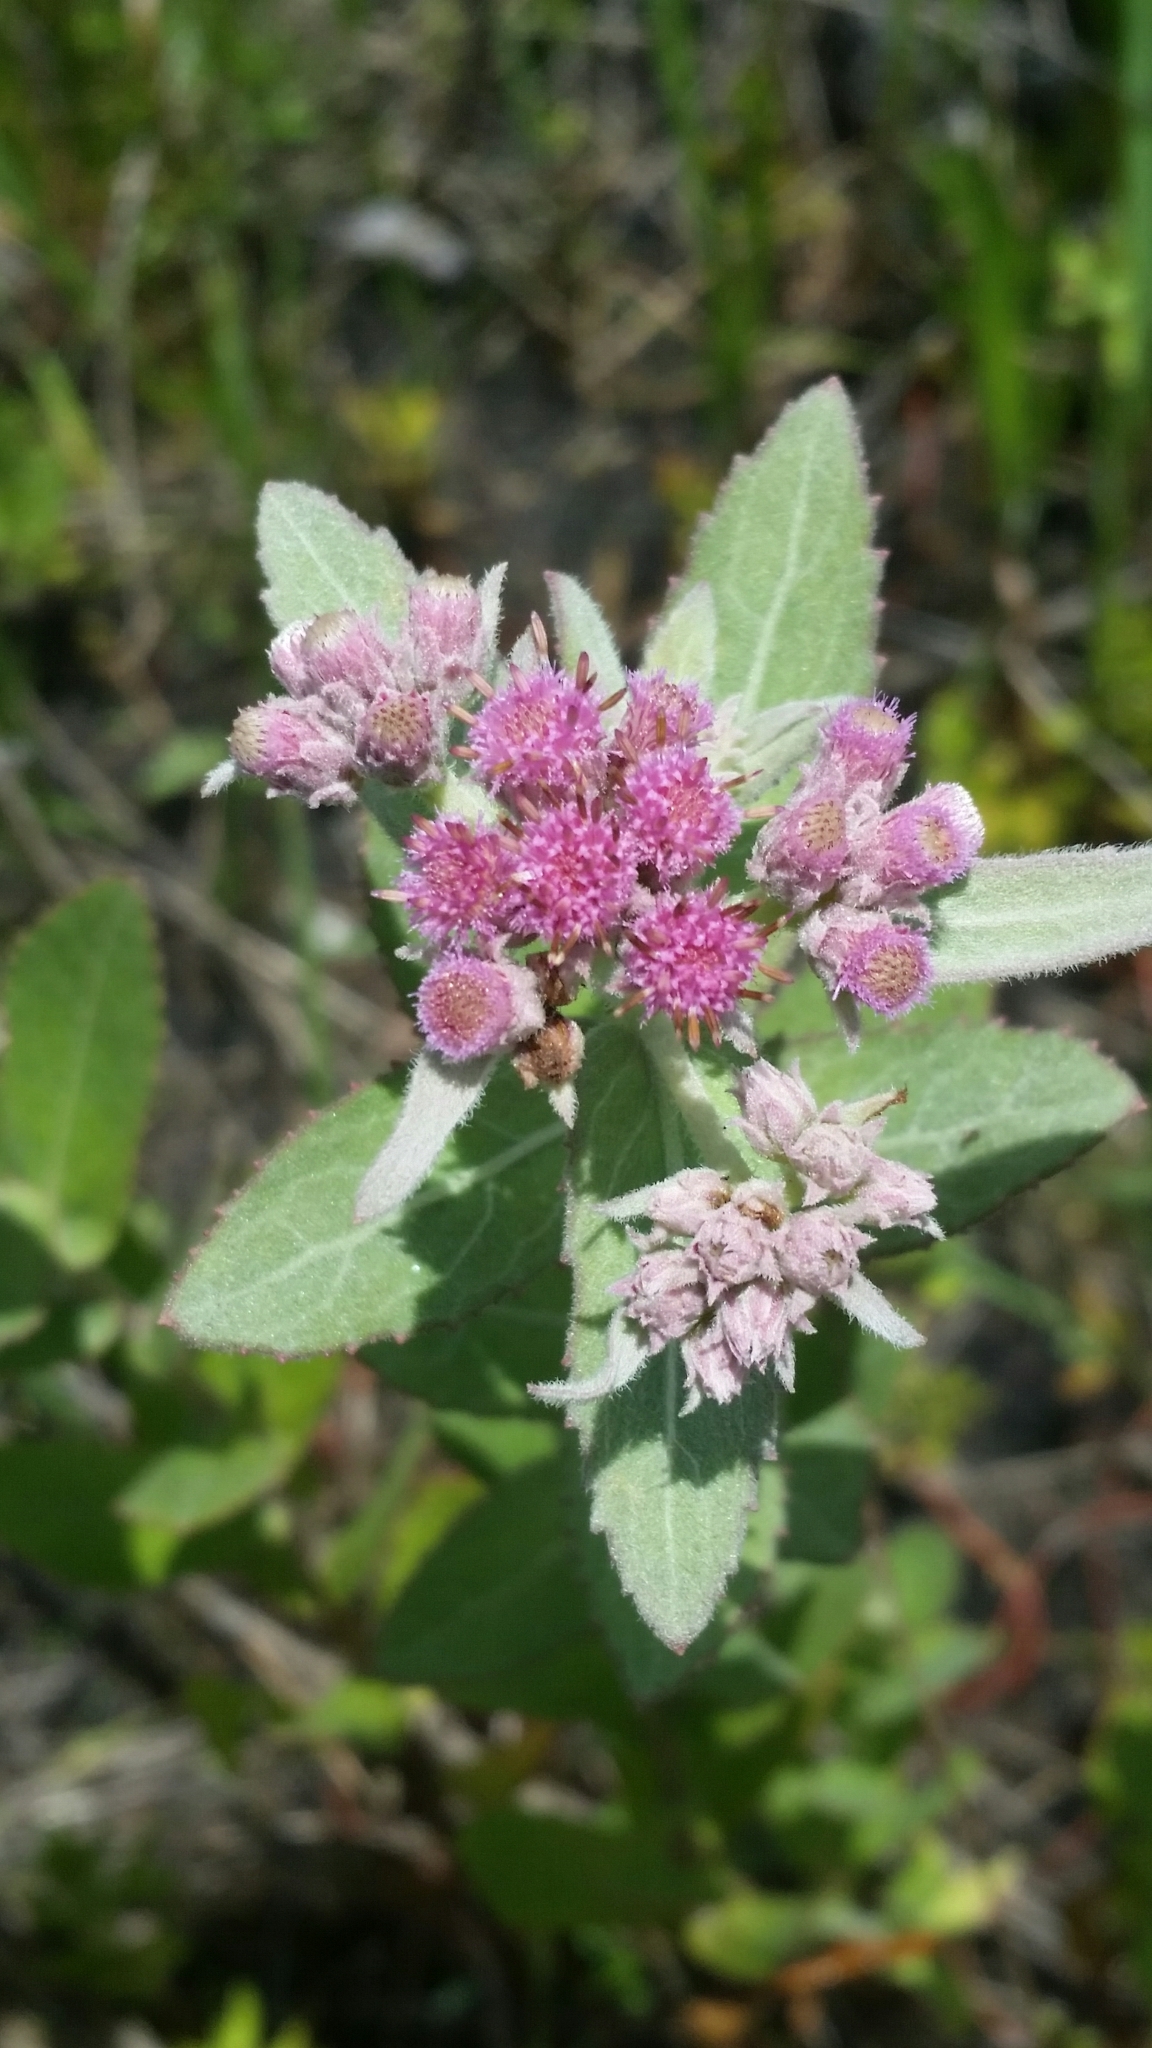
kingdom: Plantae
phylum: Tracheophyta
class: Magnoliopsida
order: Asterales
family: Asteraceae
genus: Pluchea
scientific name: Pluchea baccharis
